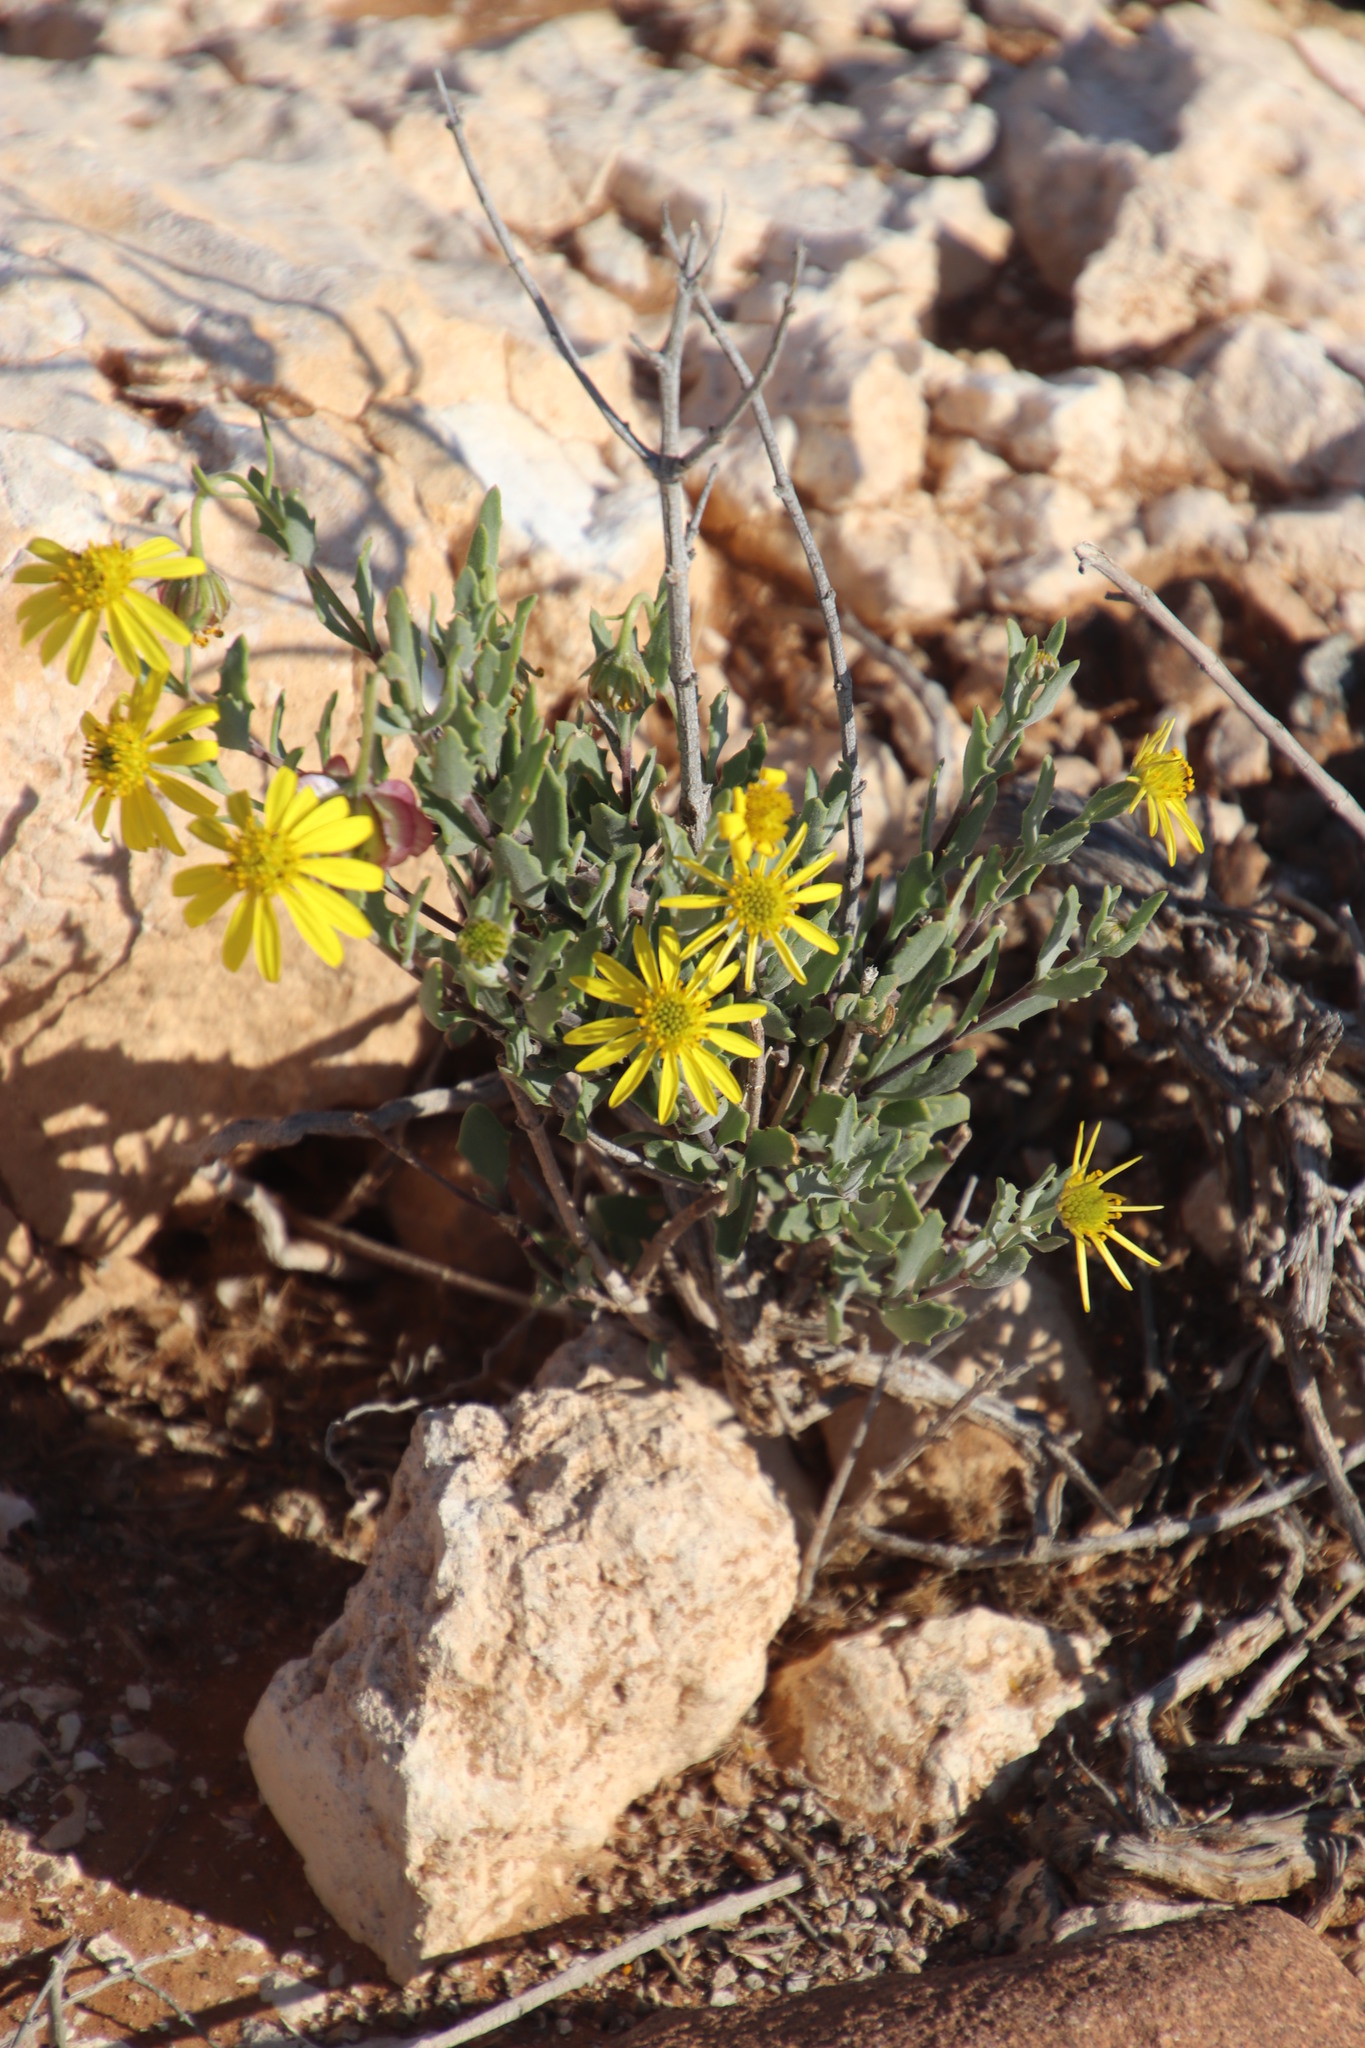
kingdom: Plantae
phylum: Tracheophyta
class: Magnoliopsida
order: Asterales
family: Asteraceae
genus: Osteospermum
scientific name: Osteospermum sinuatum
